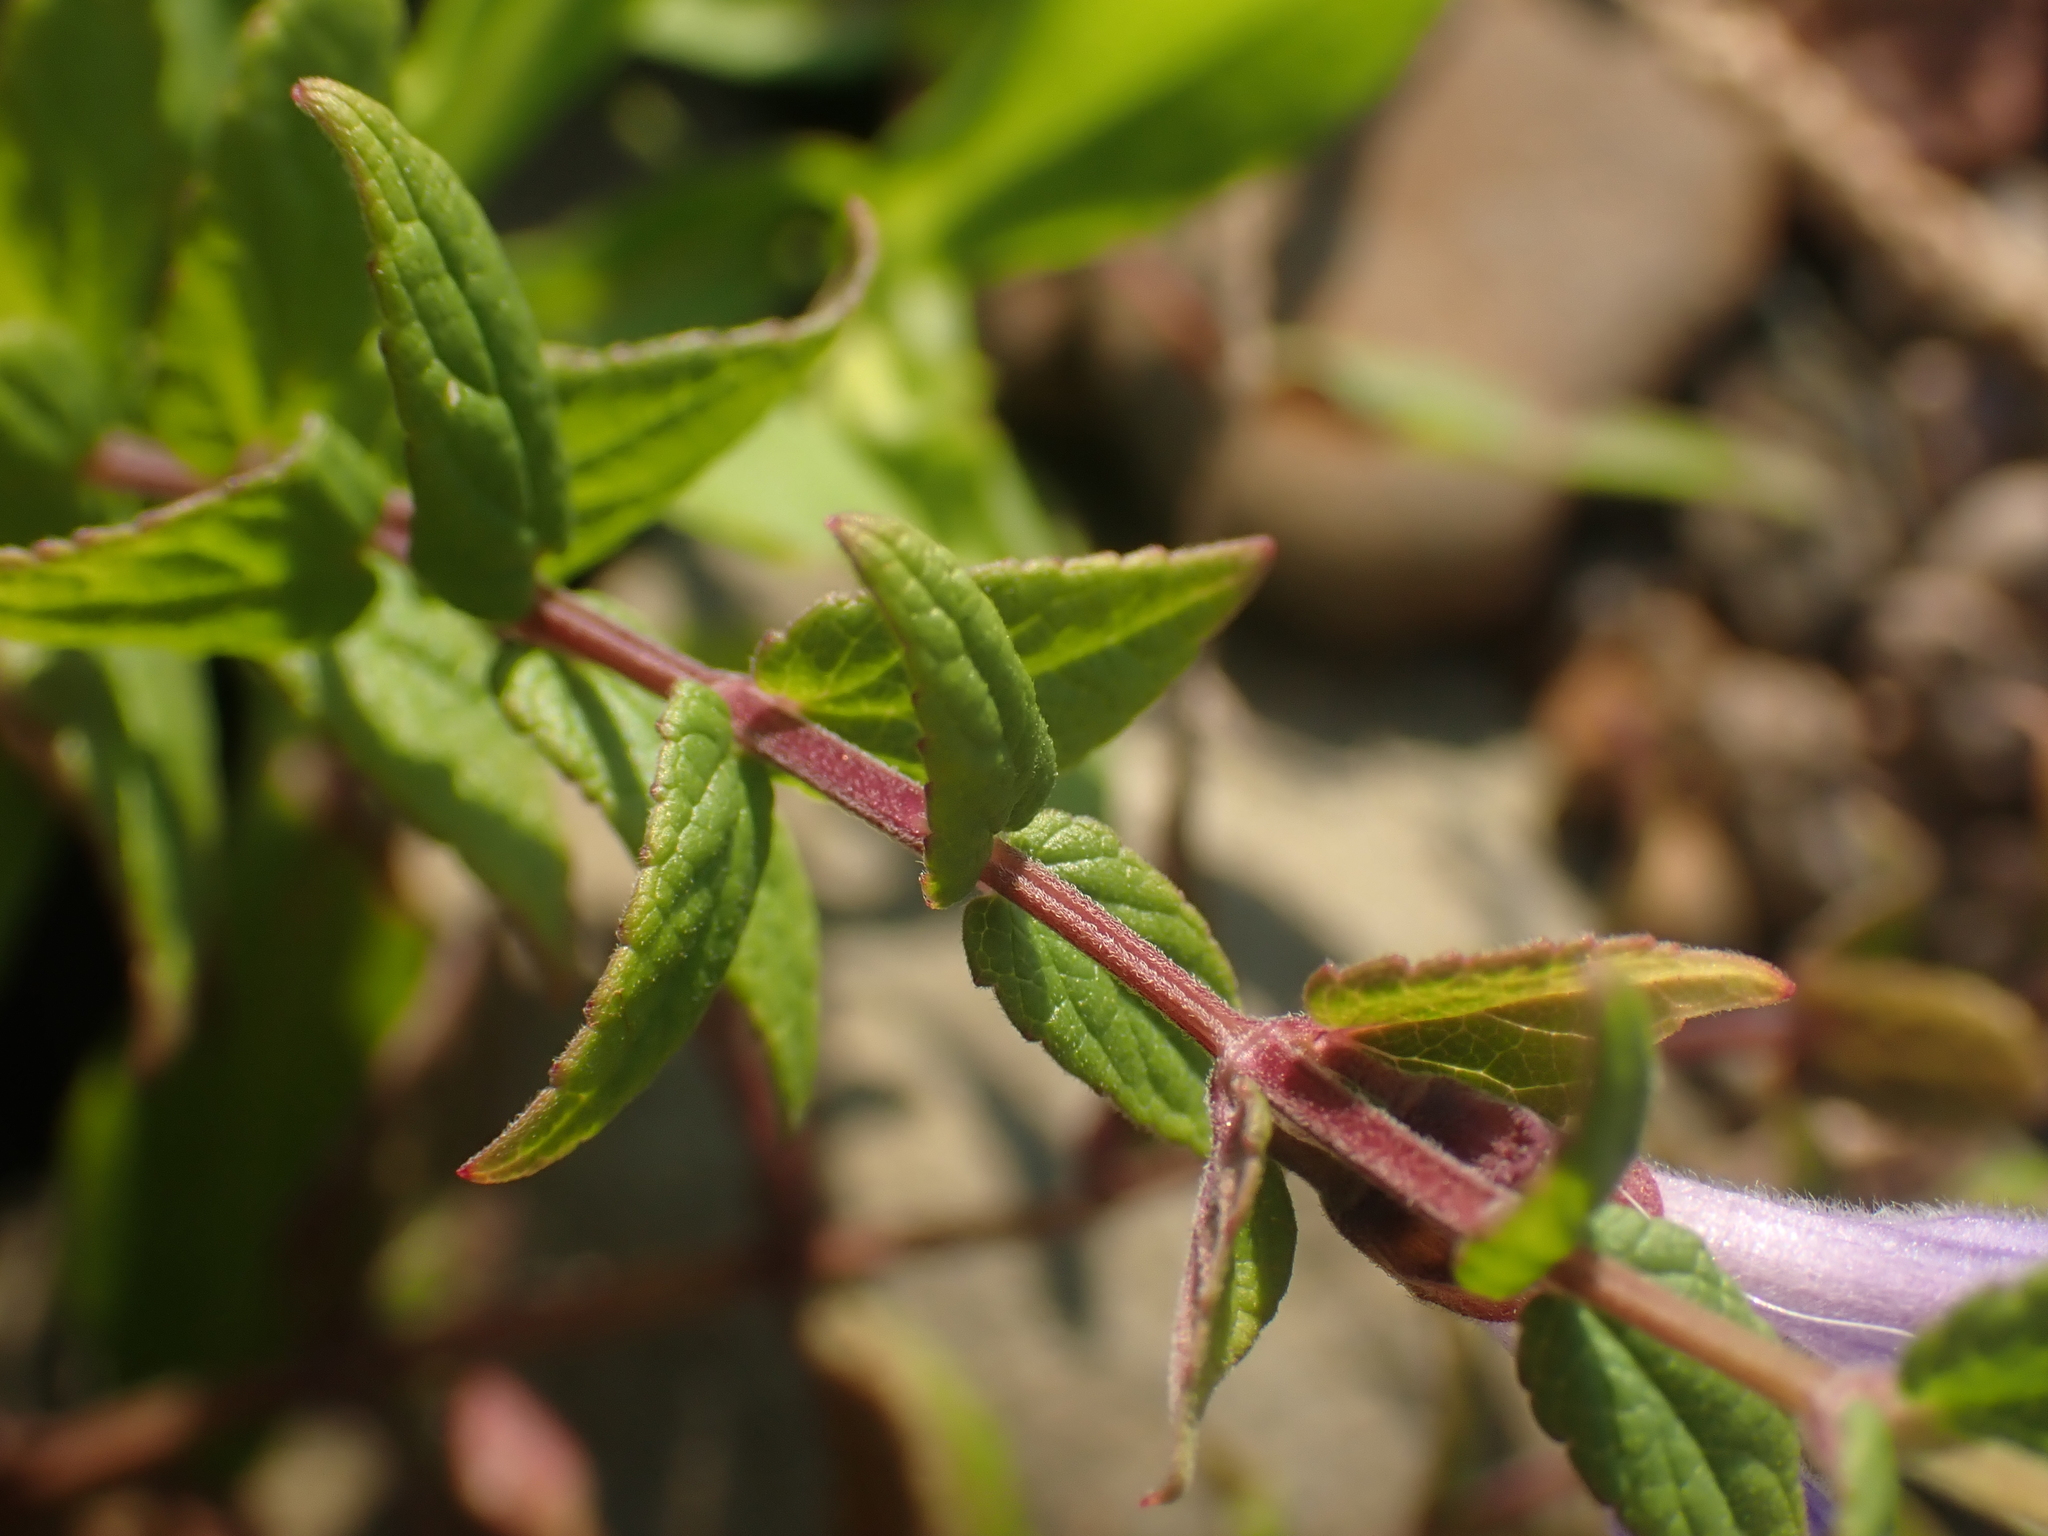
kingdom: Plantae
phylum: Tracheophyta
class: Magnoliopsida
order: Lamiales
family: Lamiaceae
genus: Scutellaria
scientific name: Scutellaria galericulata
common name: Skullcap
